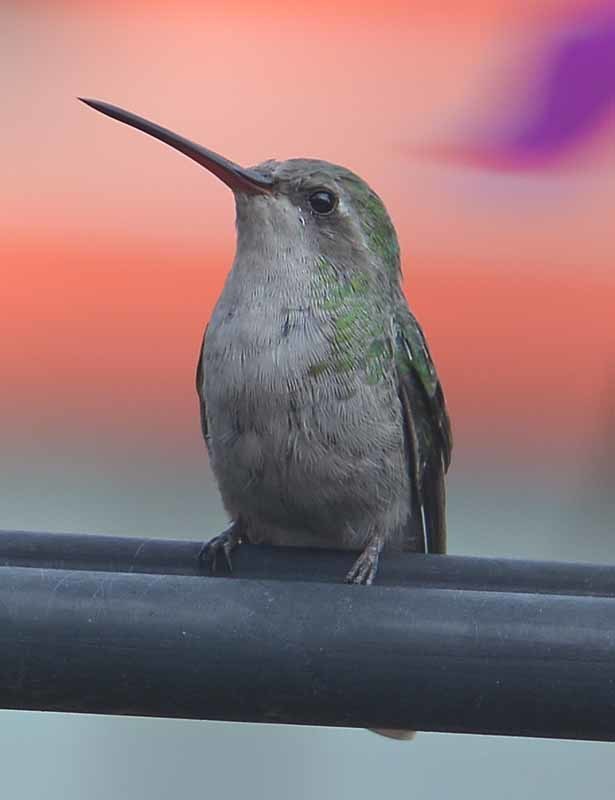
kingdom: Animalia
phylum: Chordata
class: Aves
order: Apodiformes
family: Trochilidae
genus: Cynanthus
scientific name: Cynanthus latirostris
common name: Broad-billed hummingbird
